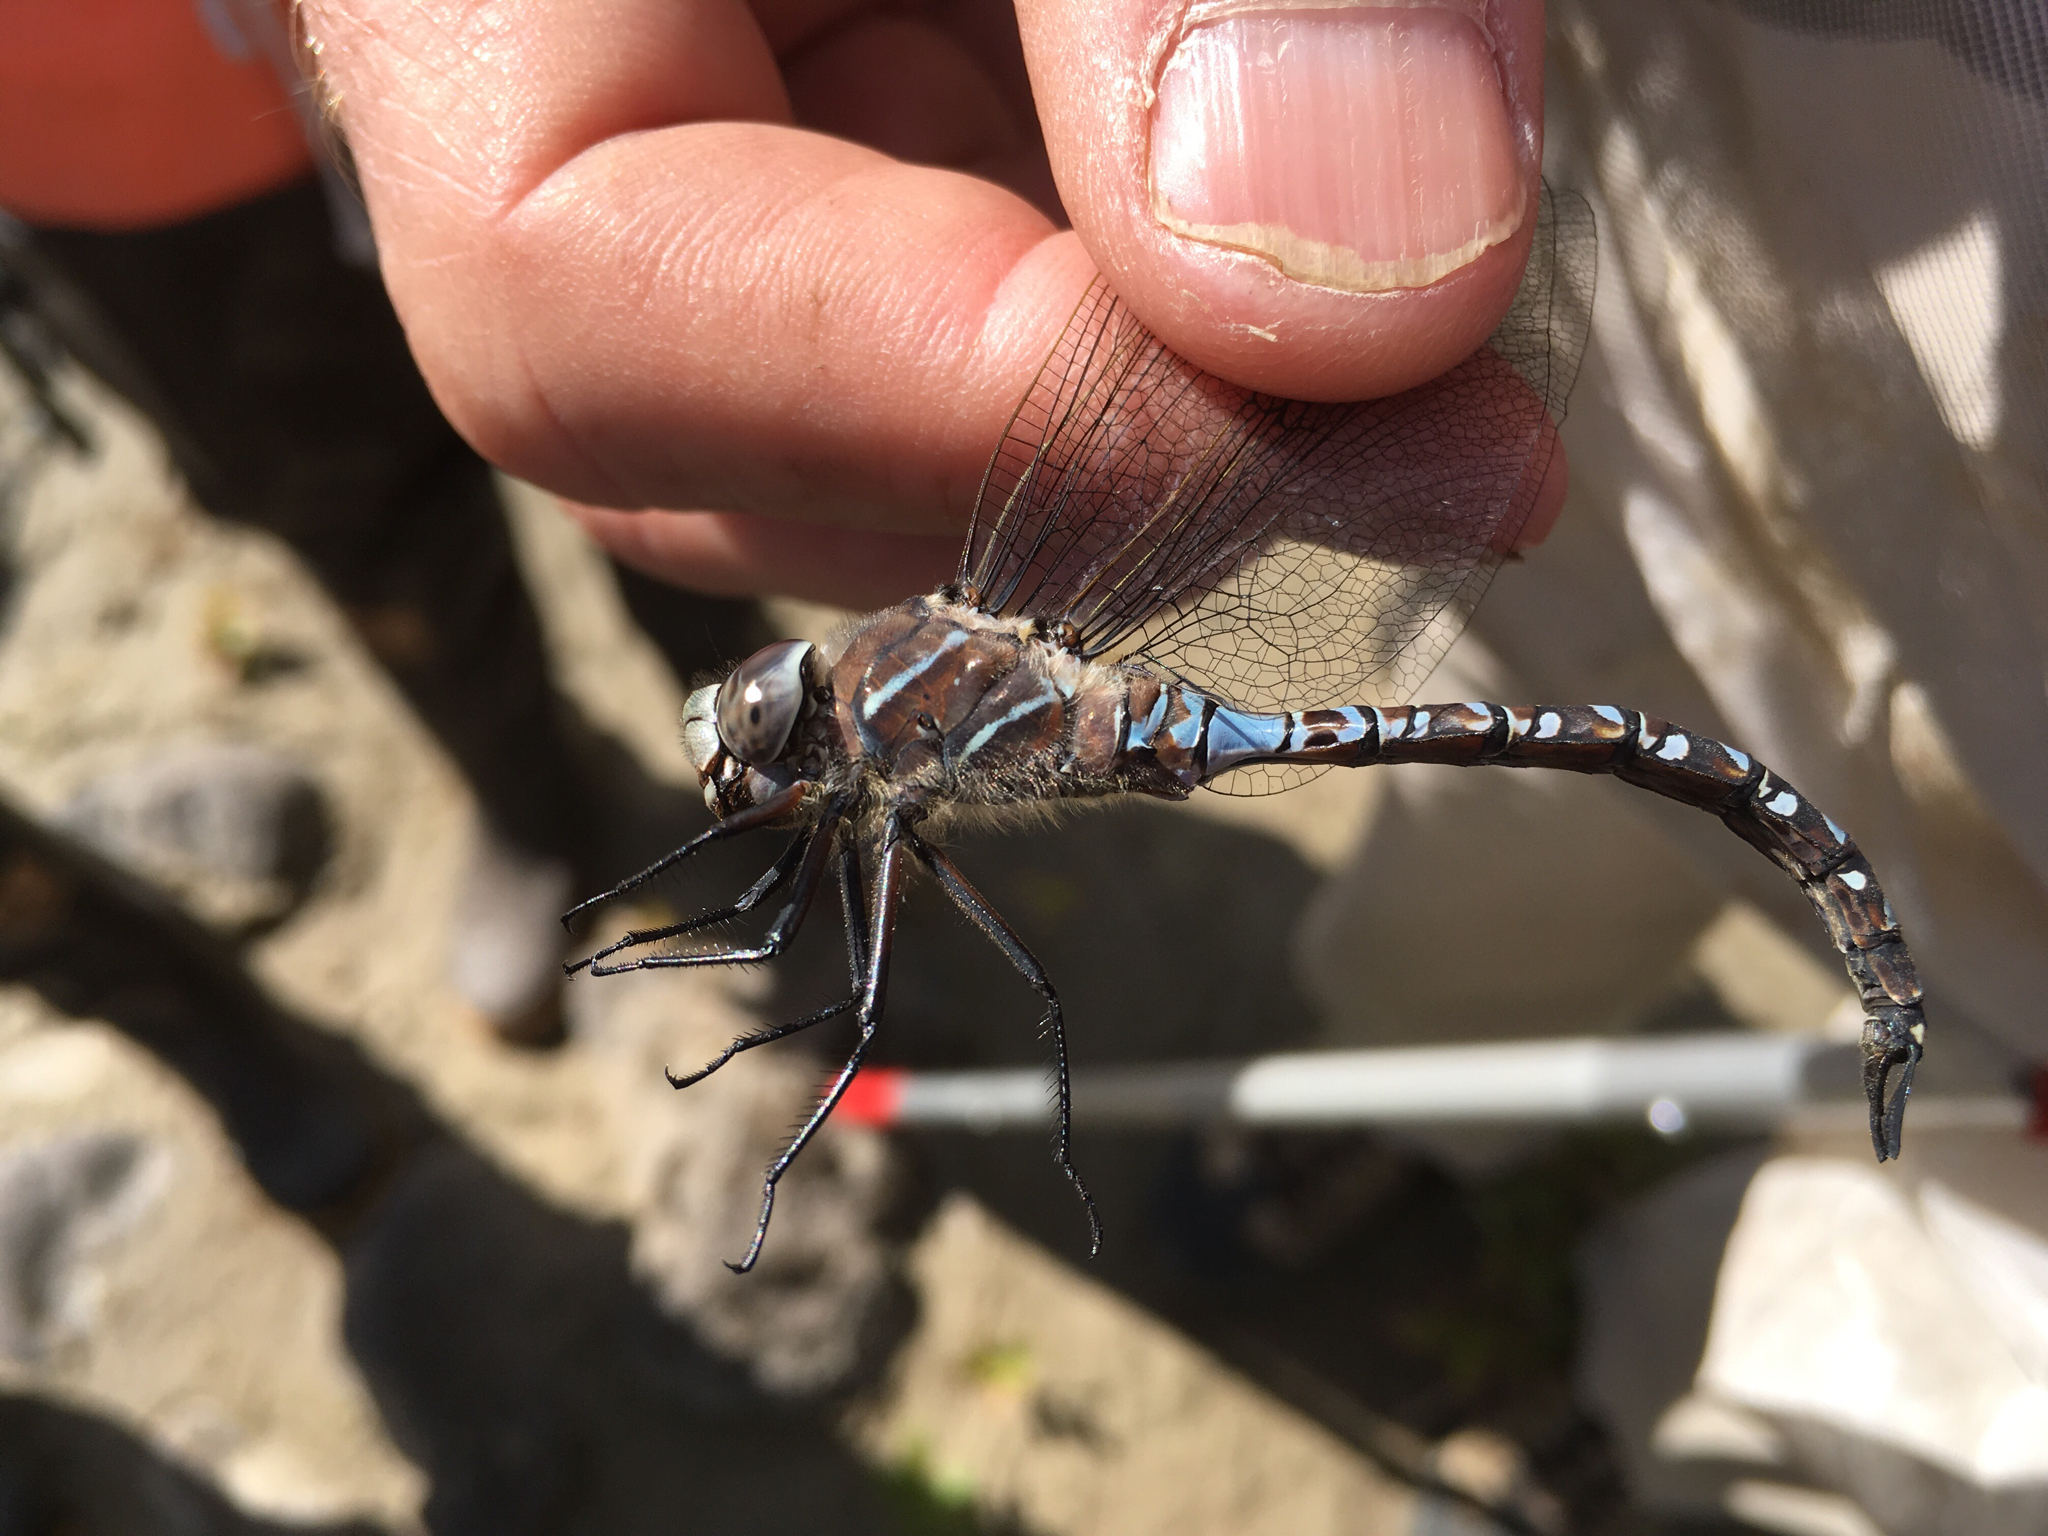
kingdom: Animalia
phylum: Arthropoda
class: Insecta
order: Odonata
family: Aeshnidae
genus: Aeshna
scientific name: Aeshna interrupta
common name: Variable darner
